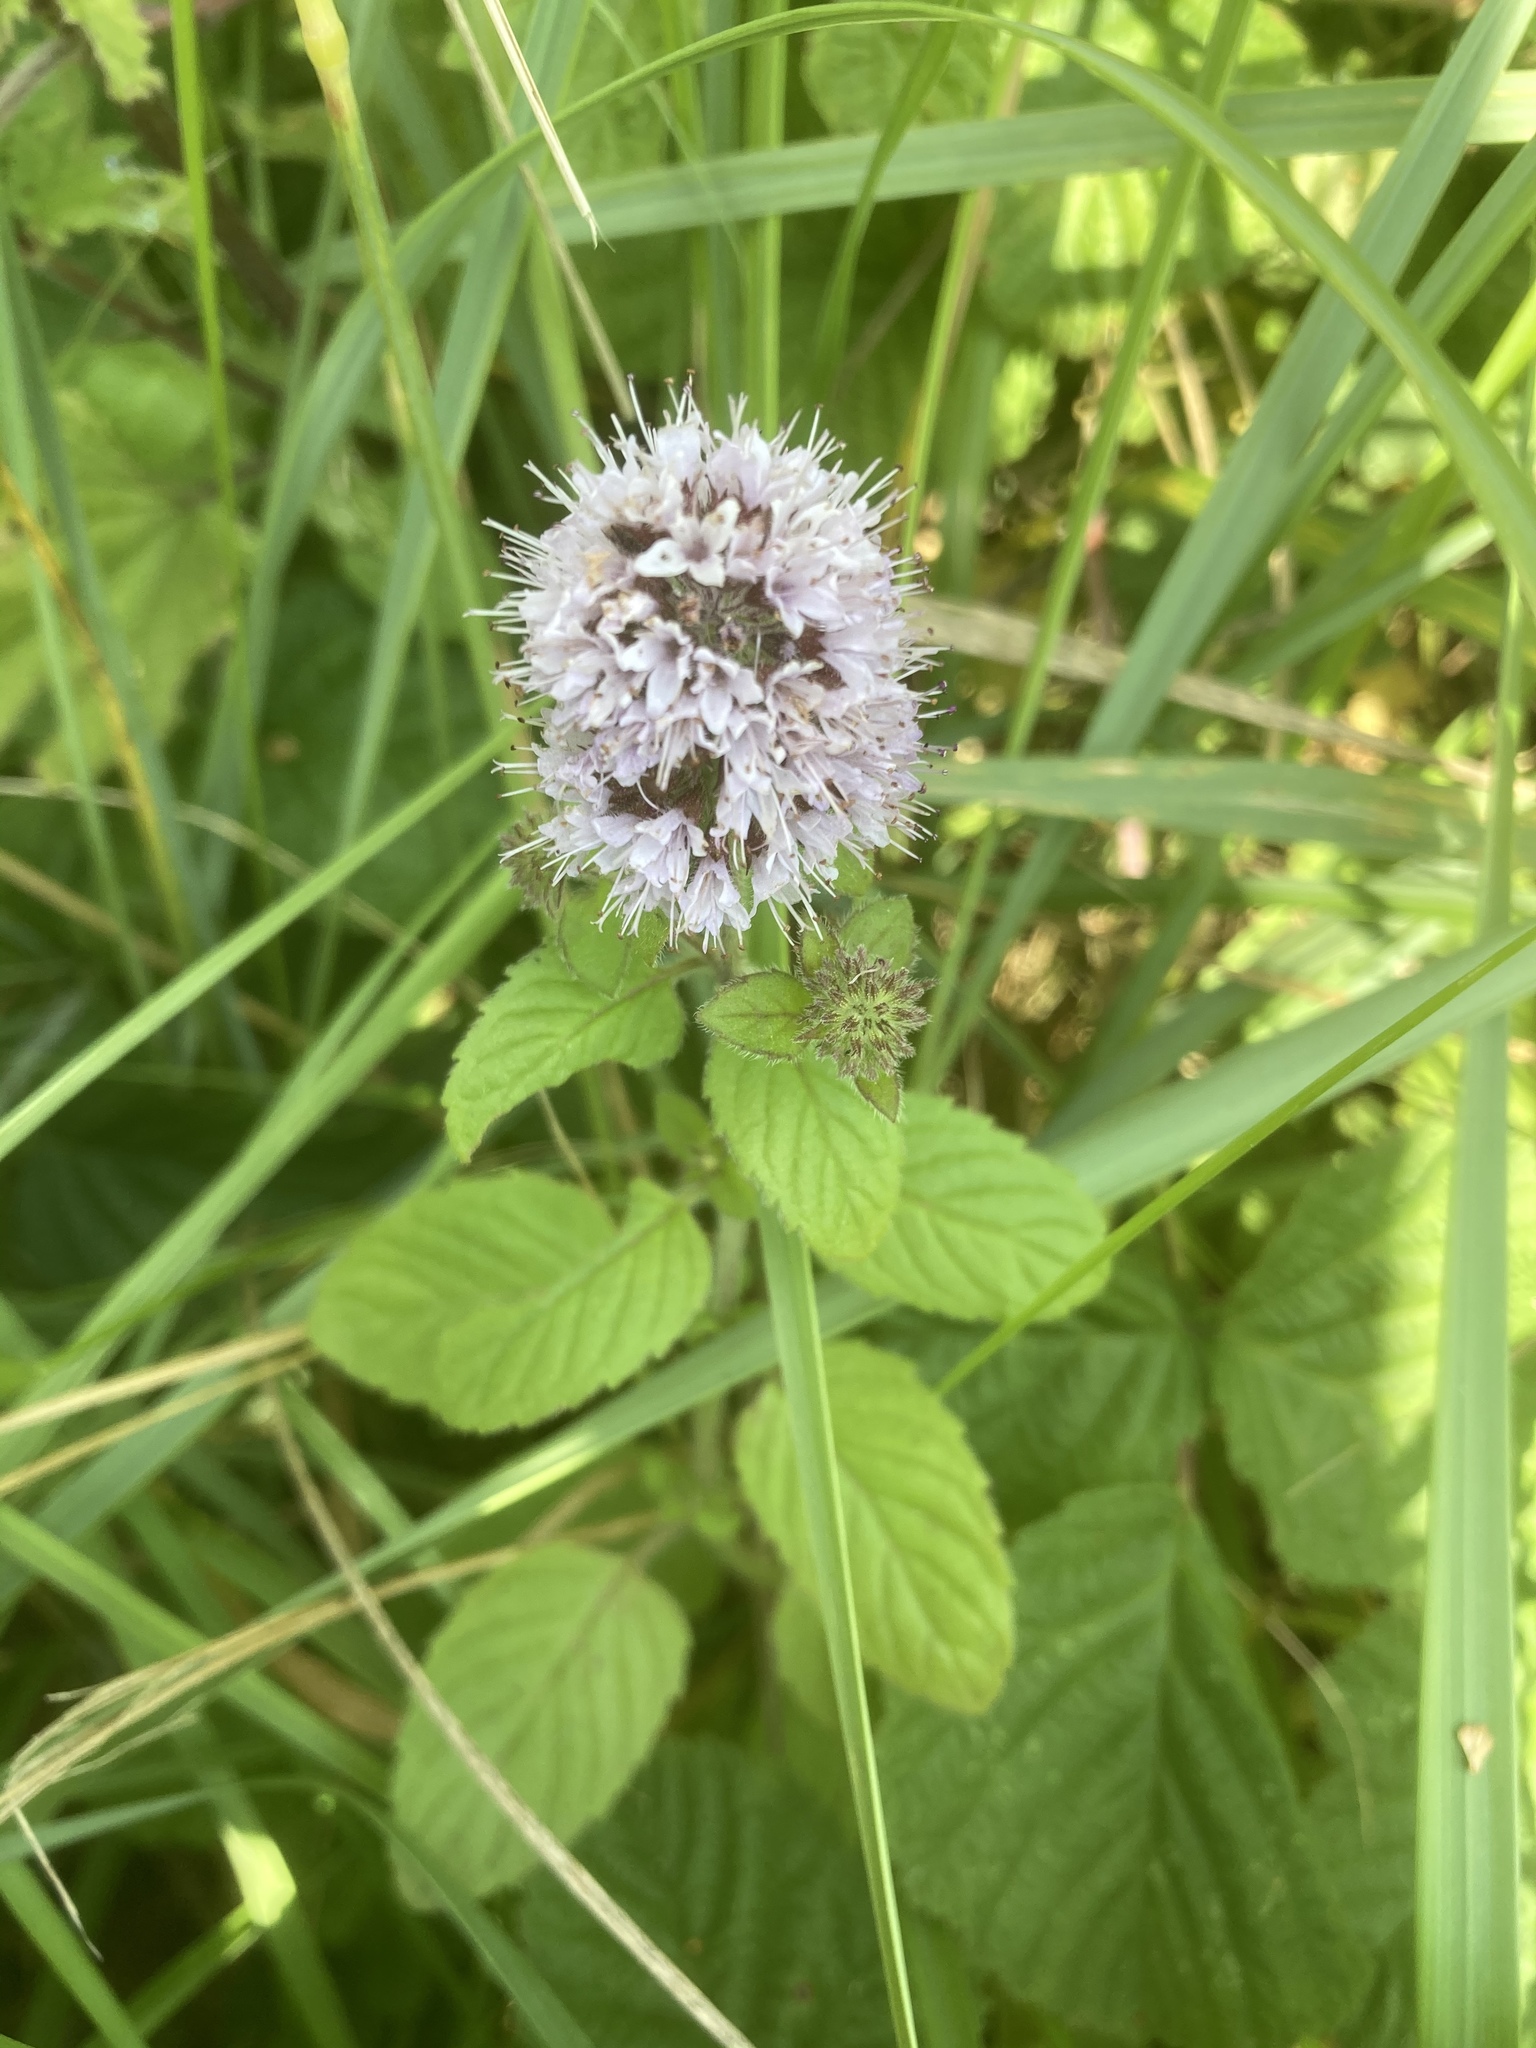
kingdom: Plantae
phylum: Tracheophyta
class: Magnoliopsida
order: Lamiales
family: Lamiaceae
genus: Mentha
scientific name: Mentha aquatica
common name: Water mint
